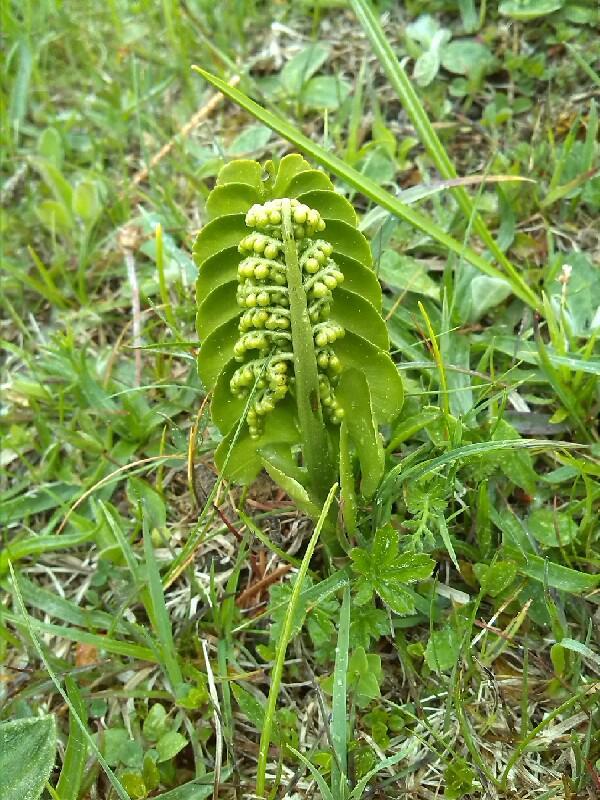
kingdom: Plantae
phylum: Tracheophyta
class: Polypodiopsida
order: Ophioglossales
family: Ophioglossaceae
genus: Botrychium
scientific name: Botrychium lunaria
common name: Moonwort
